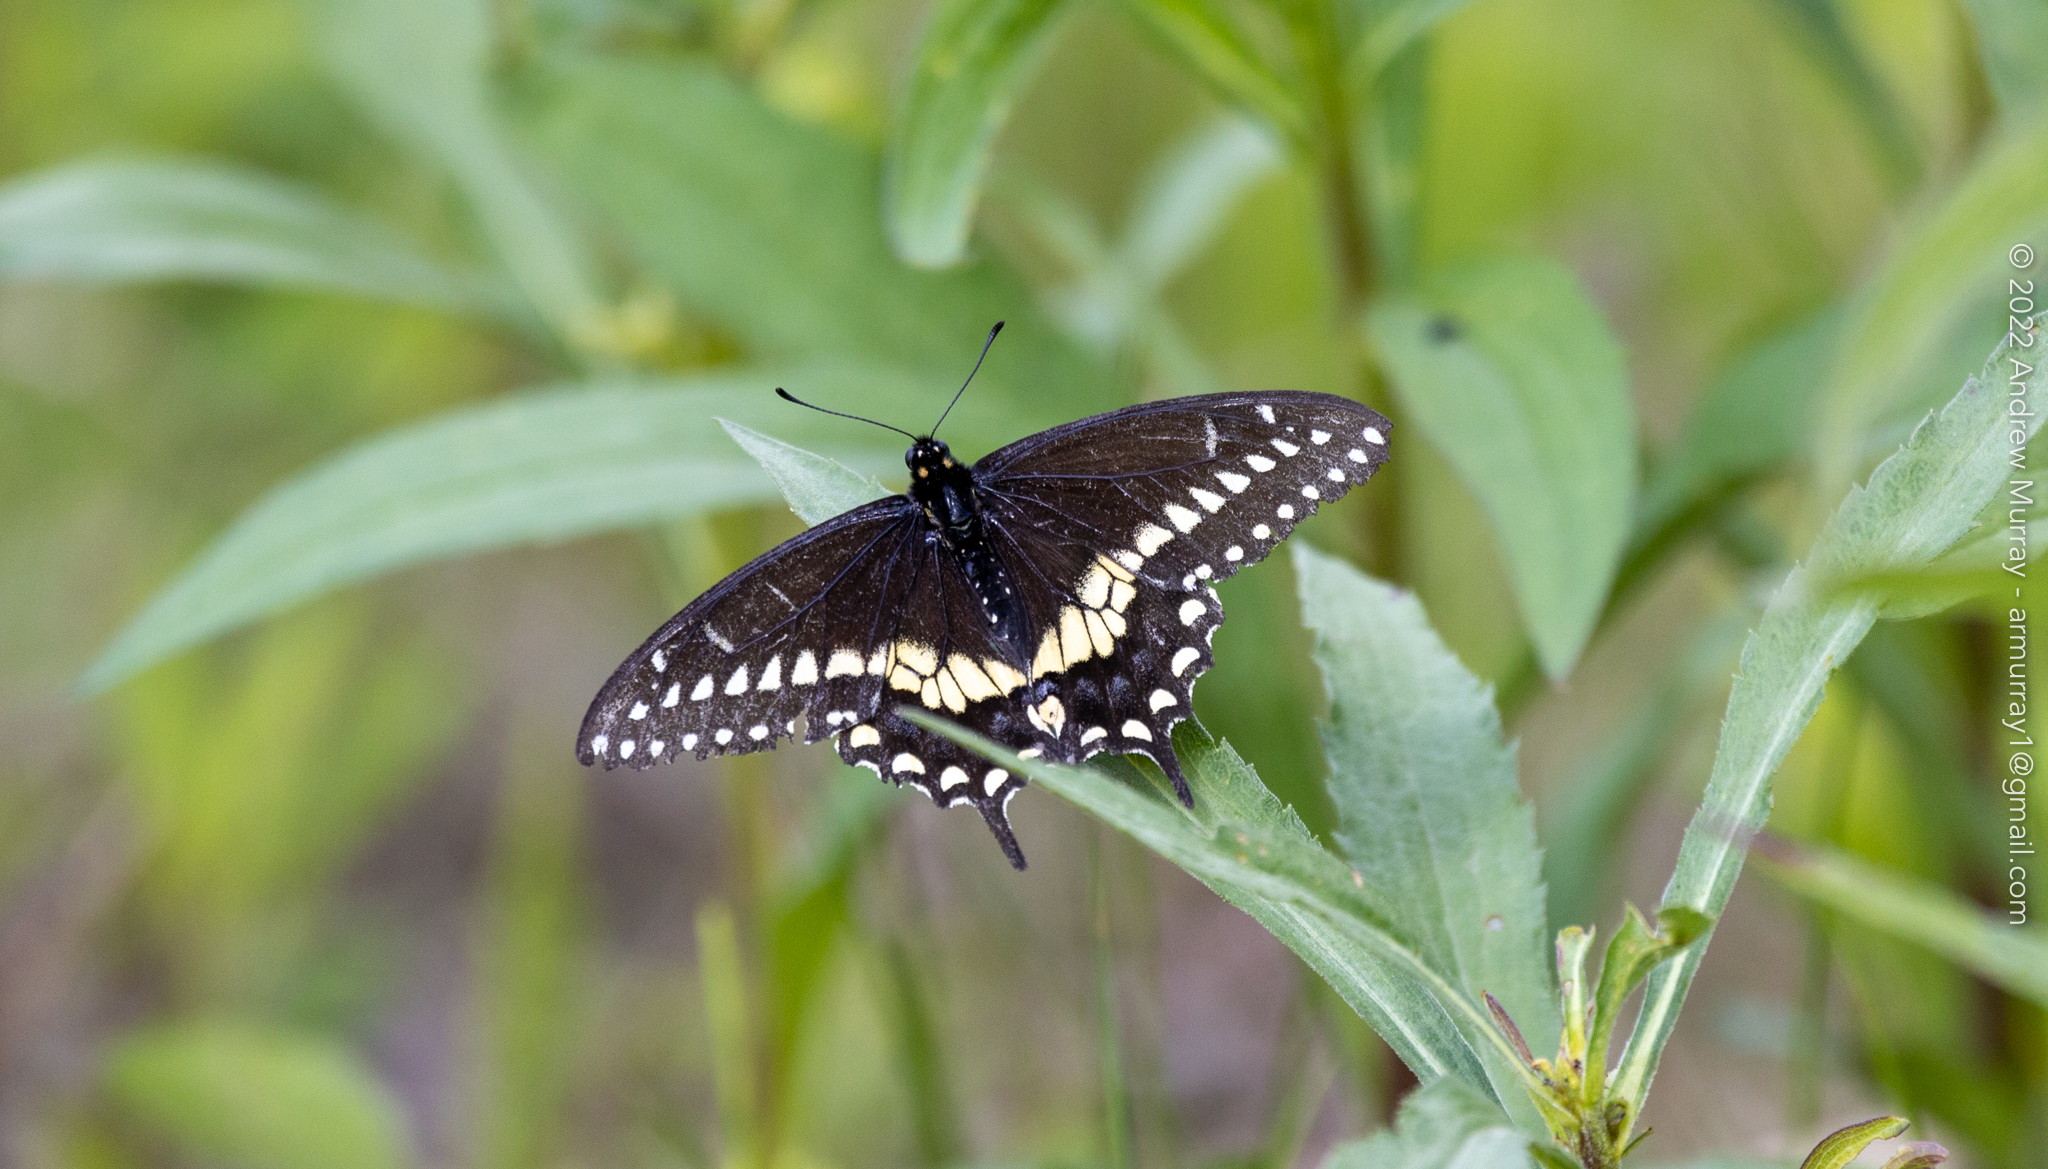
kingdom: Animalia
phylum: Arthropoda
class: Insecta
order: Lepidoptera
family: Papilionidae
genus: Papilio
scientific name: Papilio polyxenes
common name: Black swallowtail
